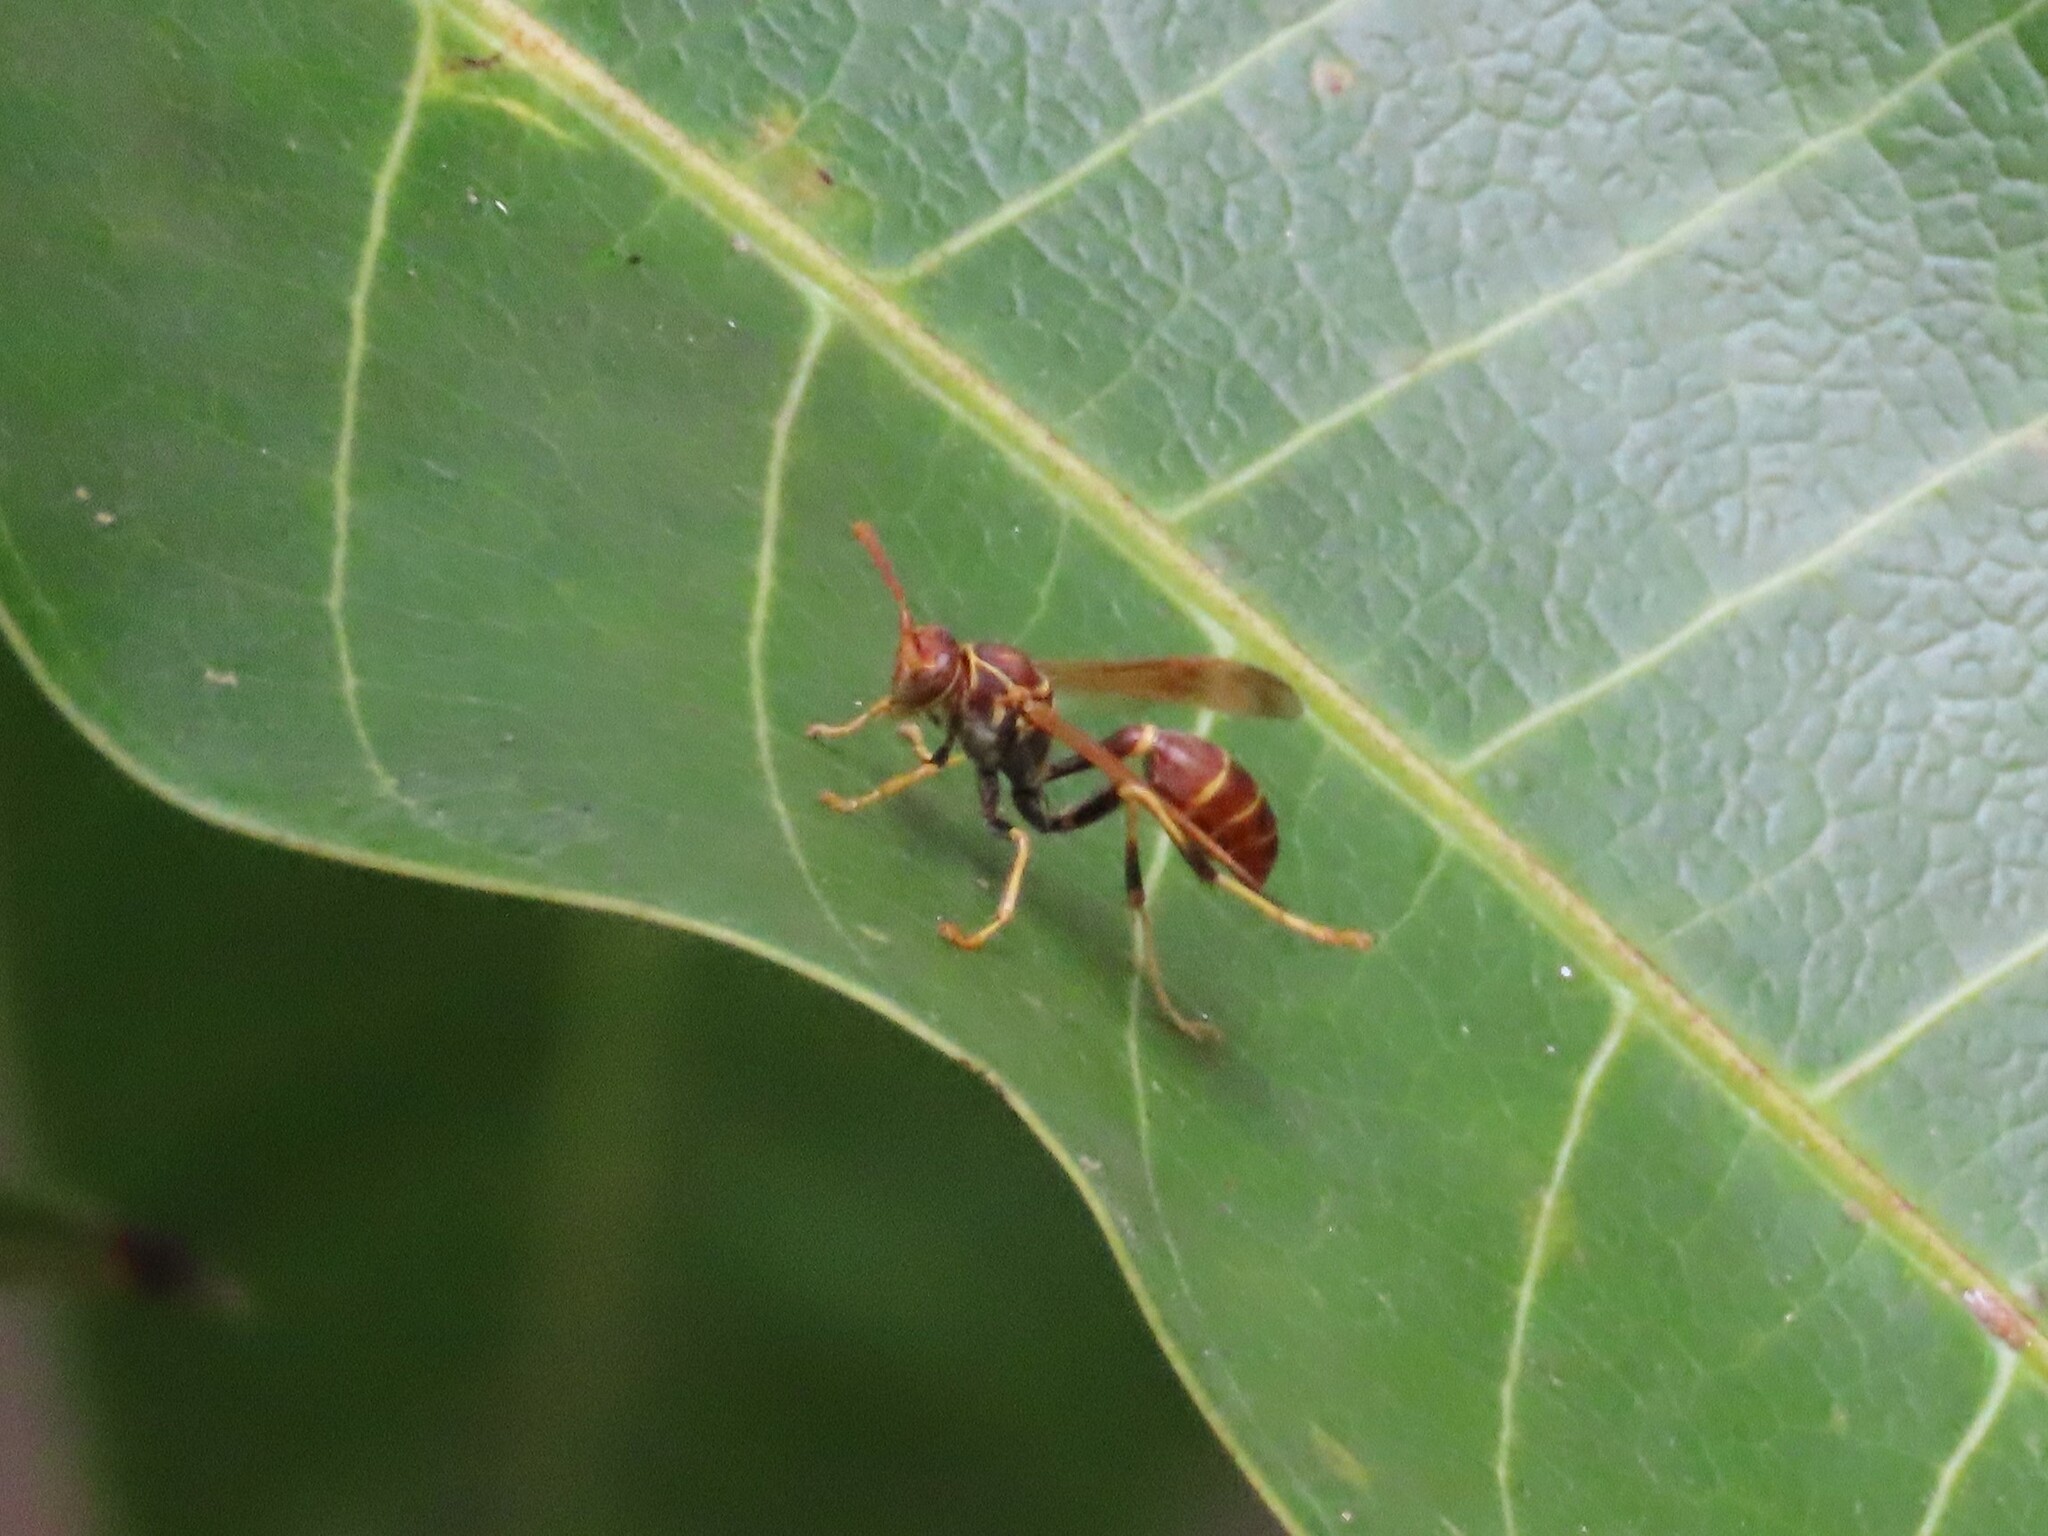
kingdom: Animalia
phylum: Arthropoda
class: Insecta
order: Hymenoptera
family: Vespidae
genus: Mischocyttarus
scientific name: Mischocyttarus mexicanus
